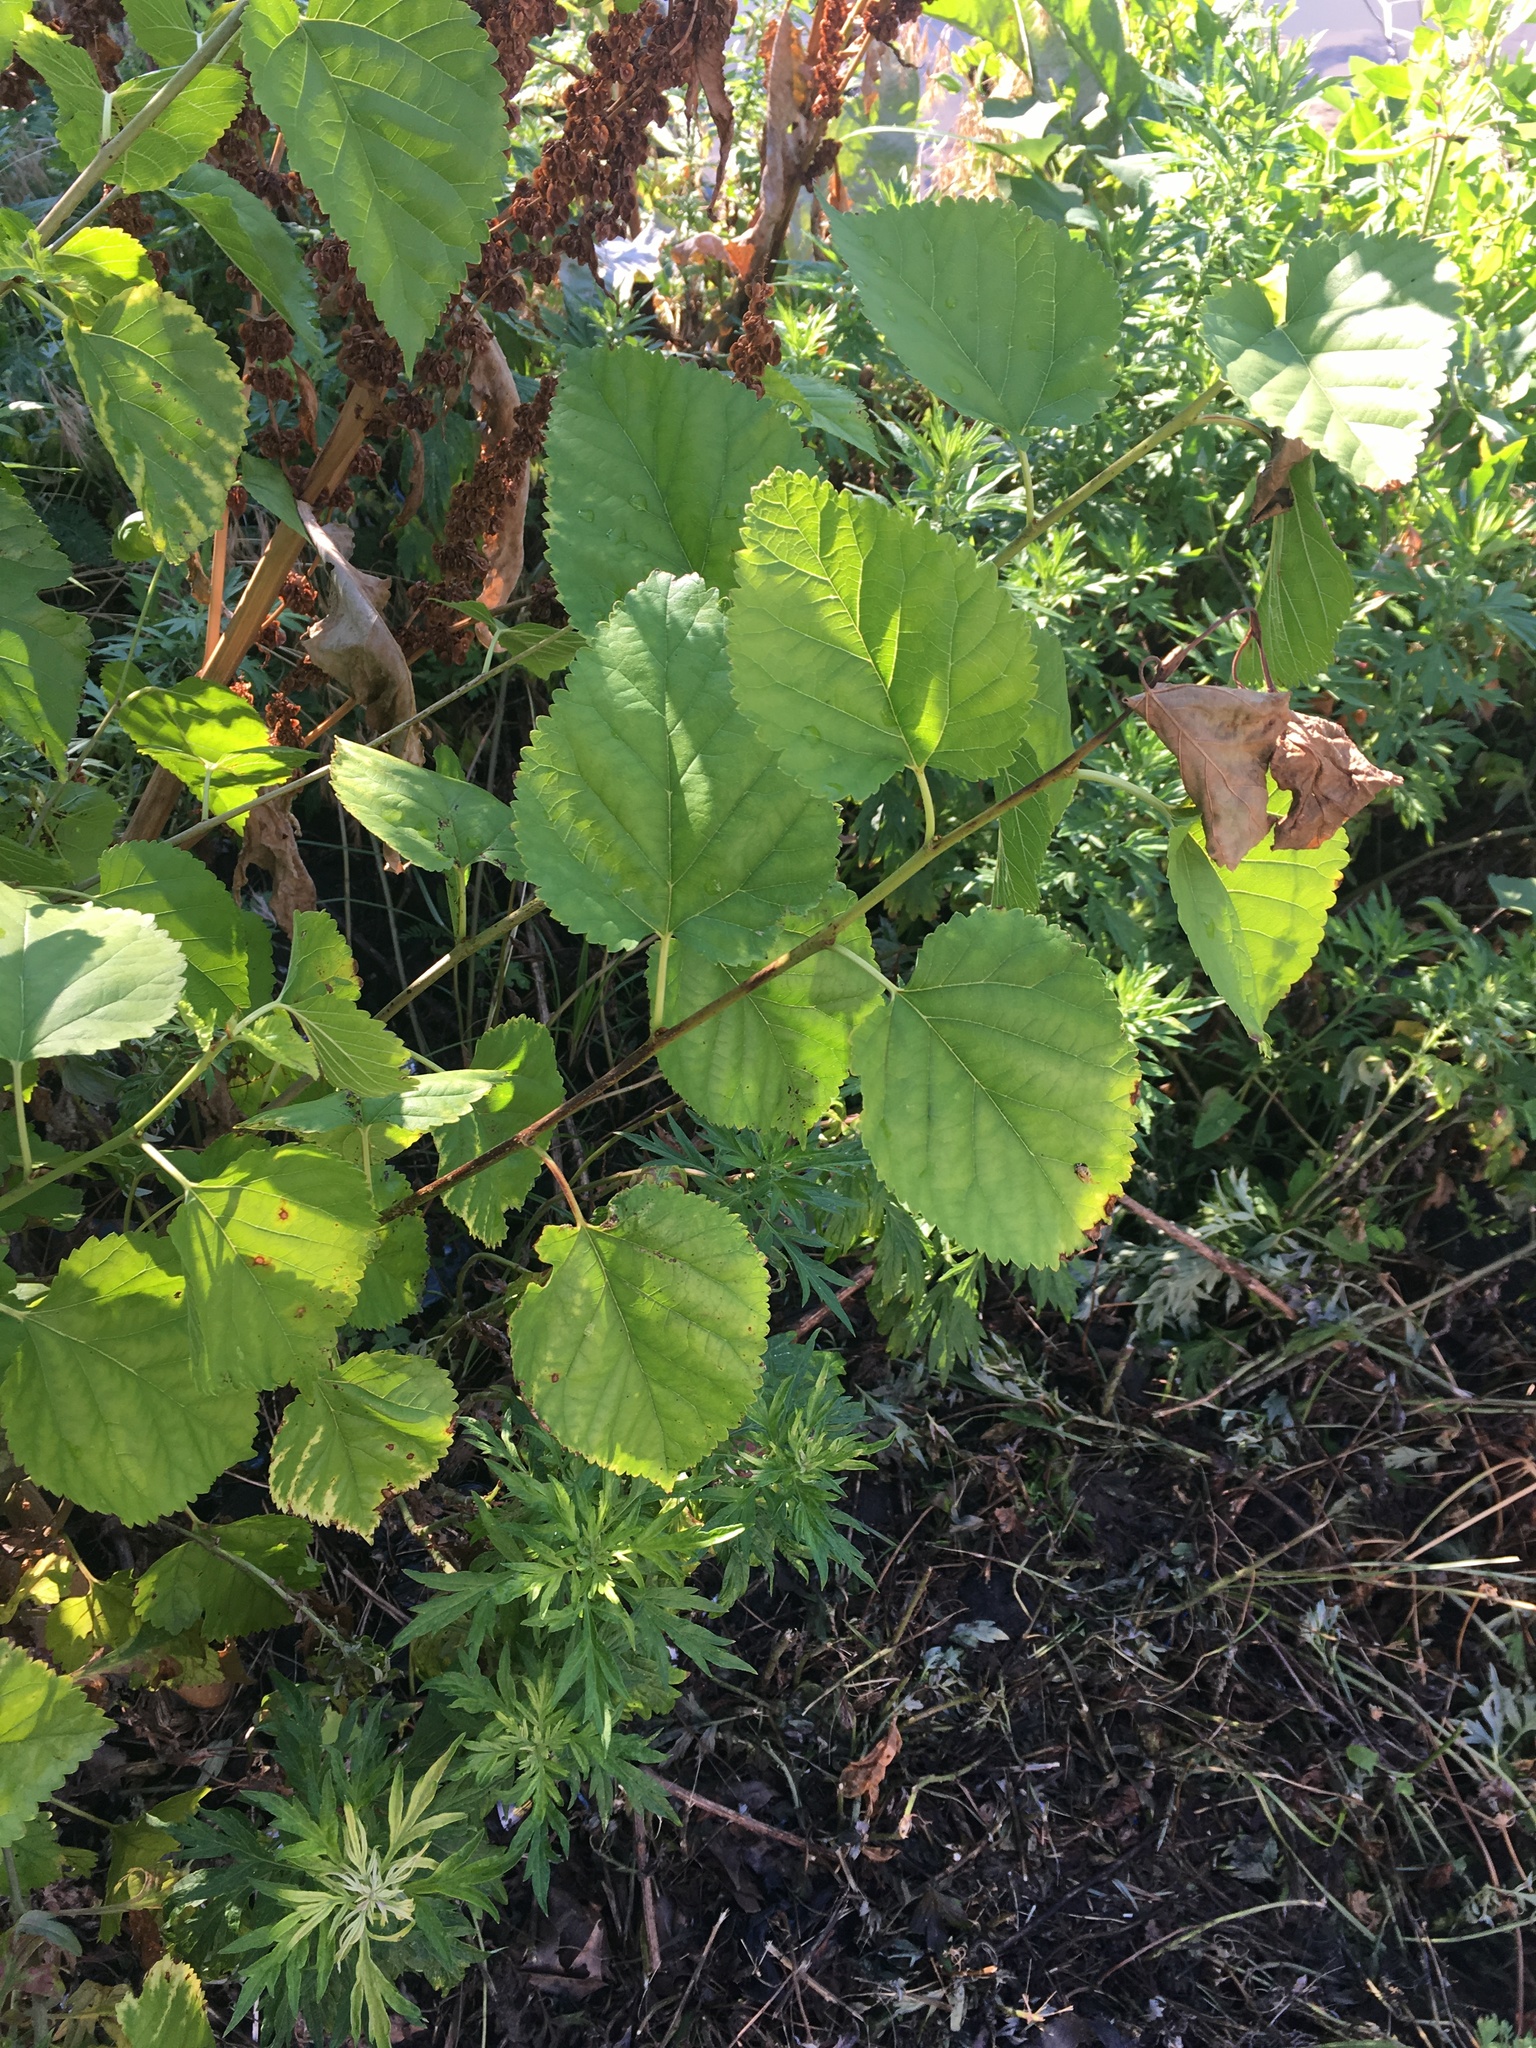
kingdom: Plantae
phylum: Tracheophyta
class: Magnoliopsida
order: Rosales
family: Moraceae
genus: Morus
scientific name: Morus alba
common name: White mulberry
